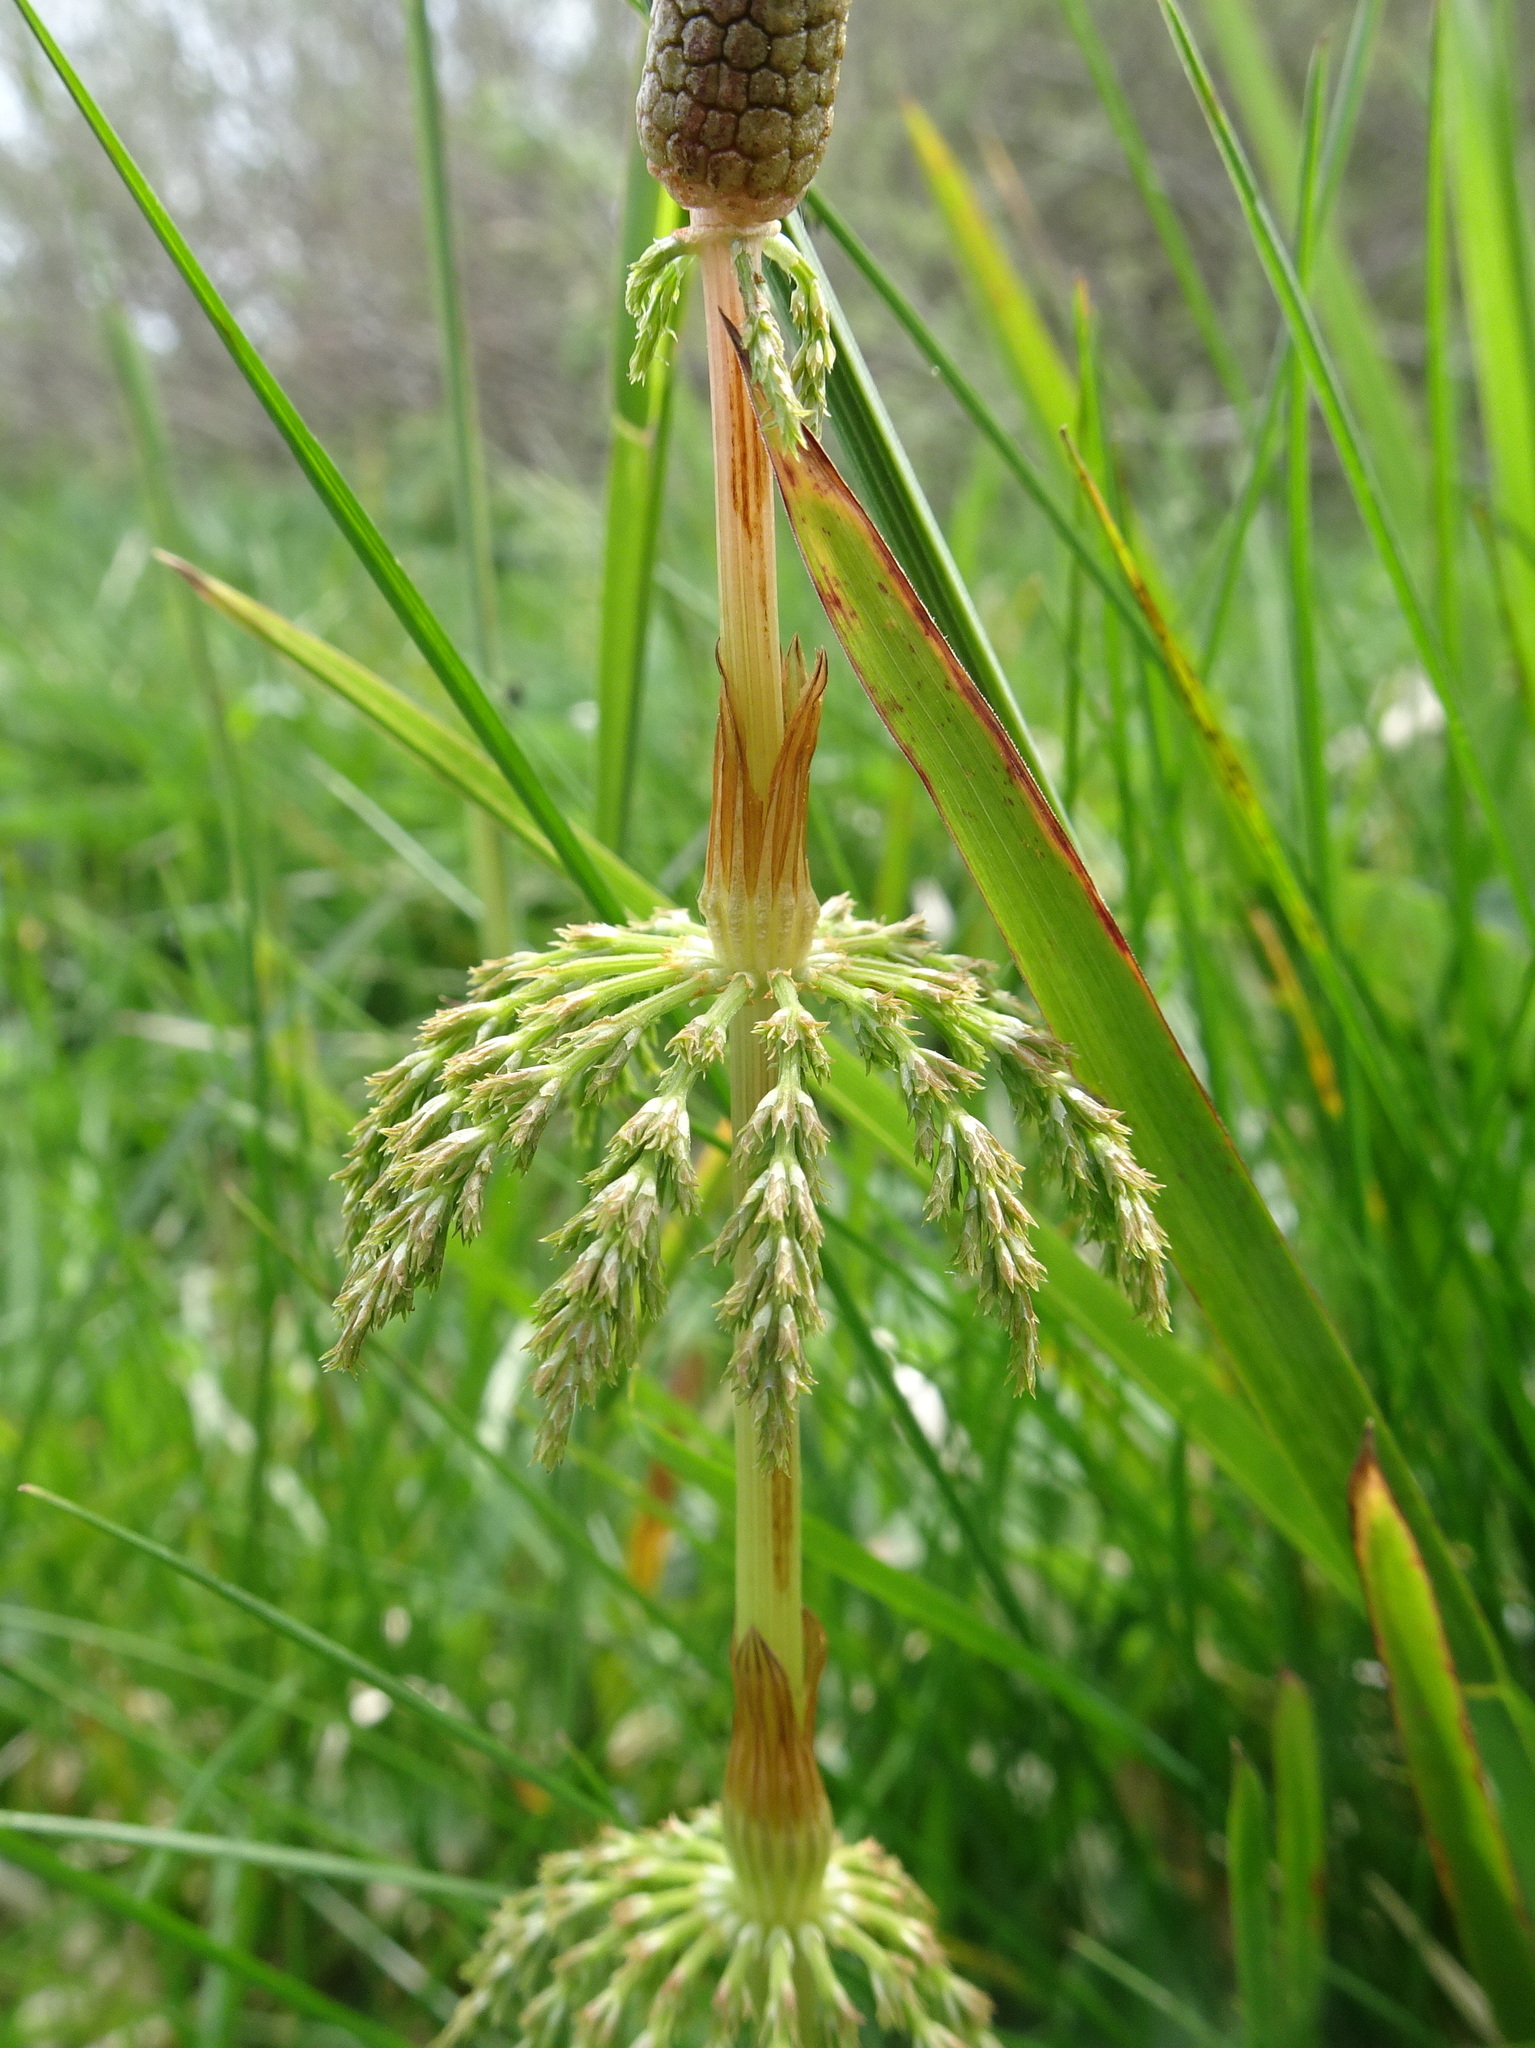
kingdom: Plantae
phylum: Tracheophyta
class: Polypodiopsida
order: Equisetales
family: Equisetaceae
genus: Equisetum
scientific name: Equisetum sylvaticum
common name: Wood horsetail
